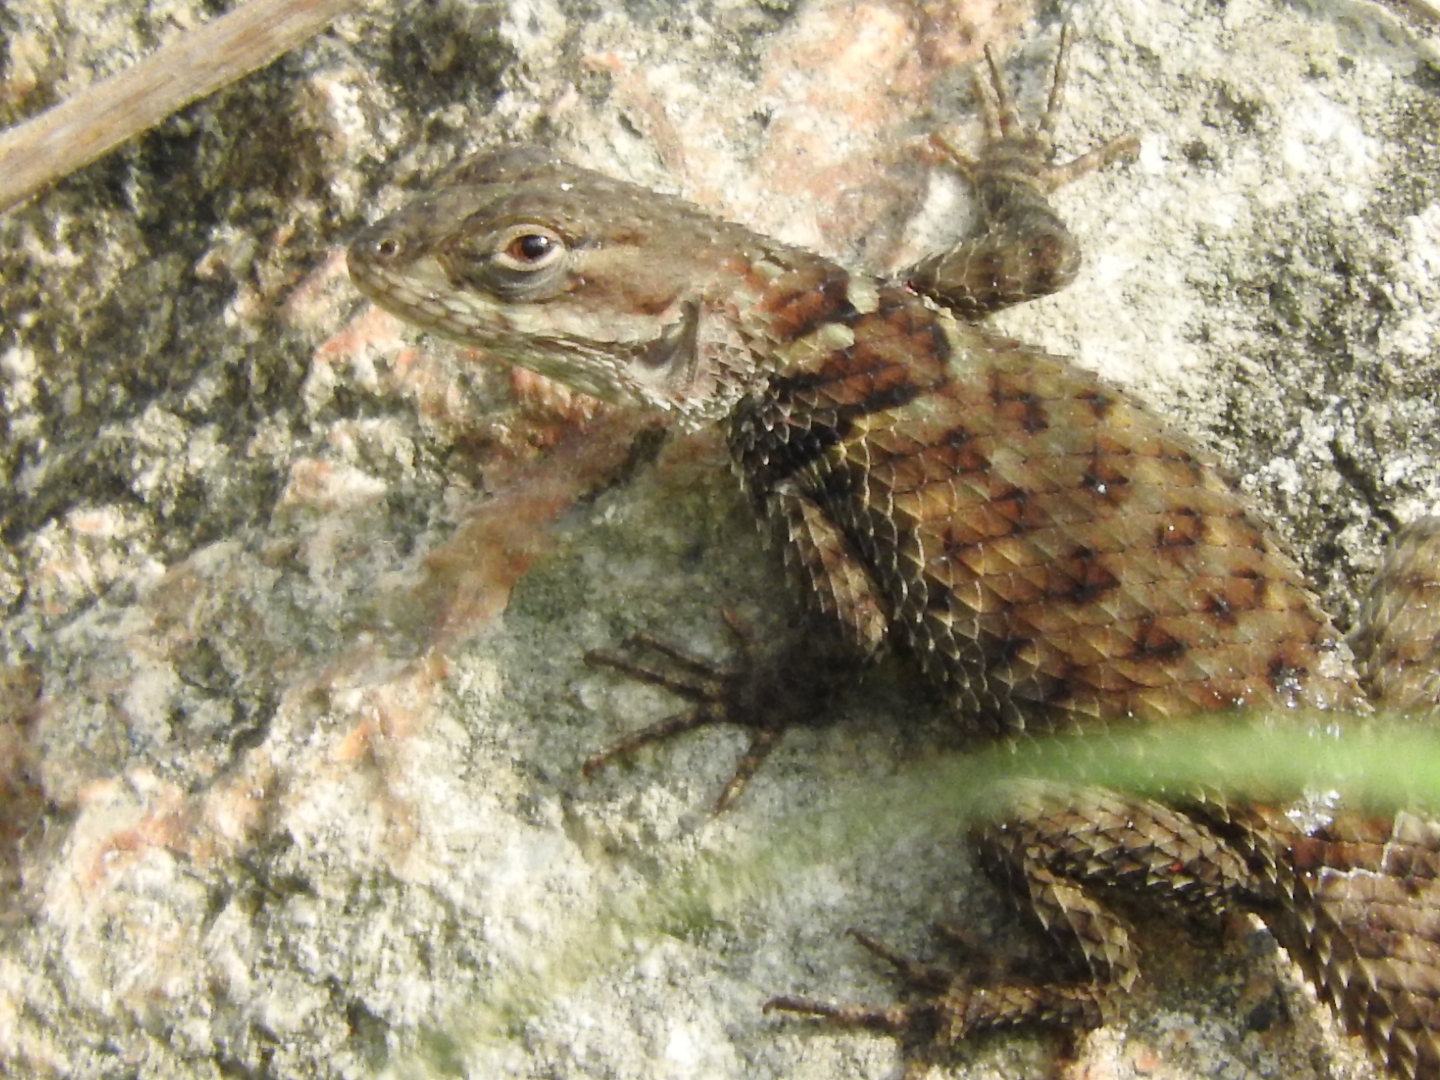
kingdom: Animalia
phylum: Chordata
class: Squamata
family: Phrynosomatidae
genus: Sceloporus
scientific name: Sceloporus torquatus
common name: Central plateau torquate lizard [melanogaster]
